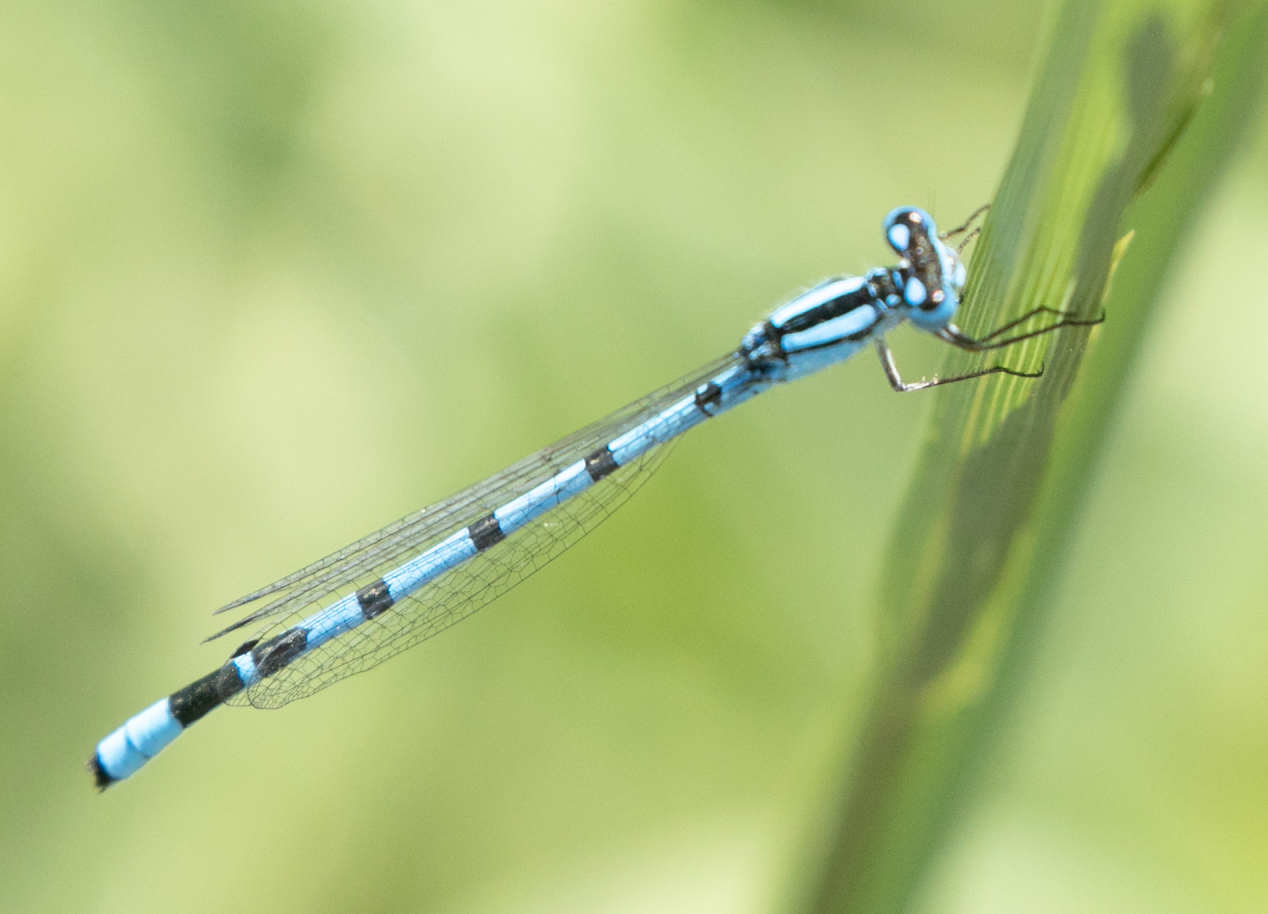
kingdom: Animalia
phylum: Arthropoda
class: Insecta
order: Odonata
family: Coenagrionidae
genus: Enallagma
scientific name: Enallagma cyathigerum
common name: Common blue damselfly
